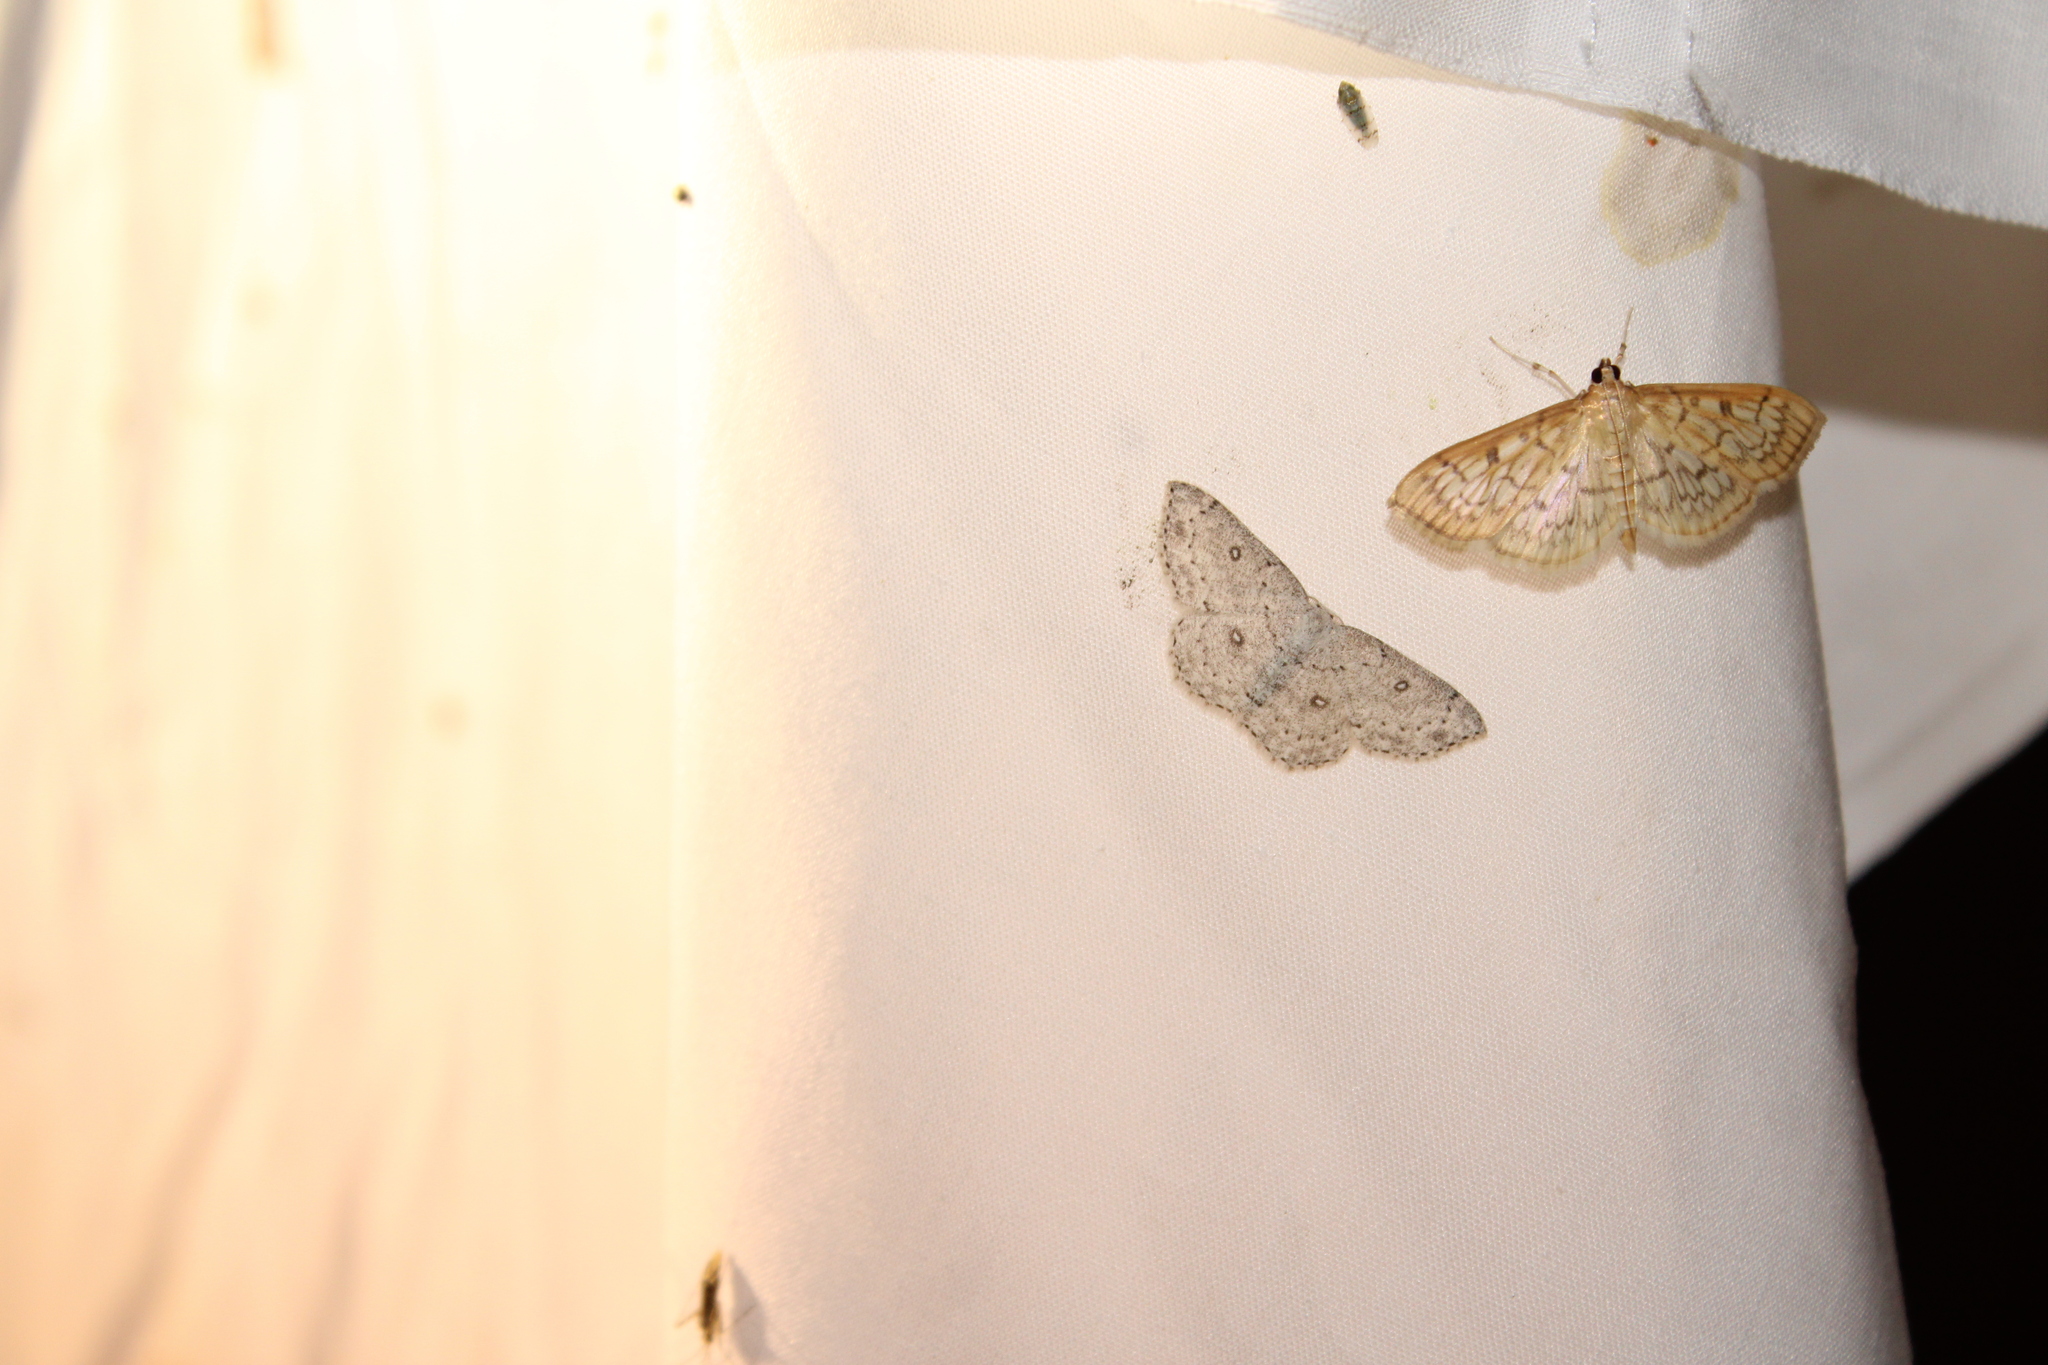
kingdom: Animalia
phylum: Arthropoda
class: Insecta
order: Lepidoptera
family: Geometridae
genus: Cyclophora
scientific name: Cyclophora pendulinaria
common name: Sweet fern geometer
